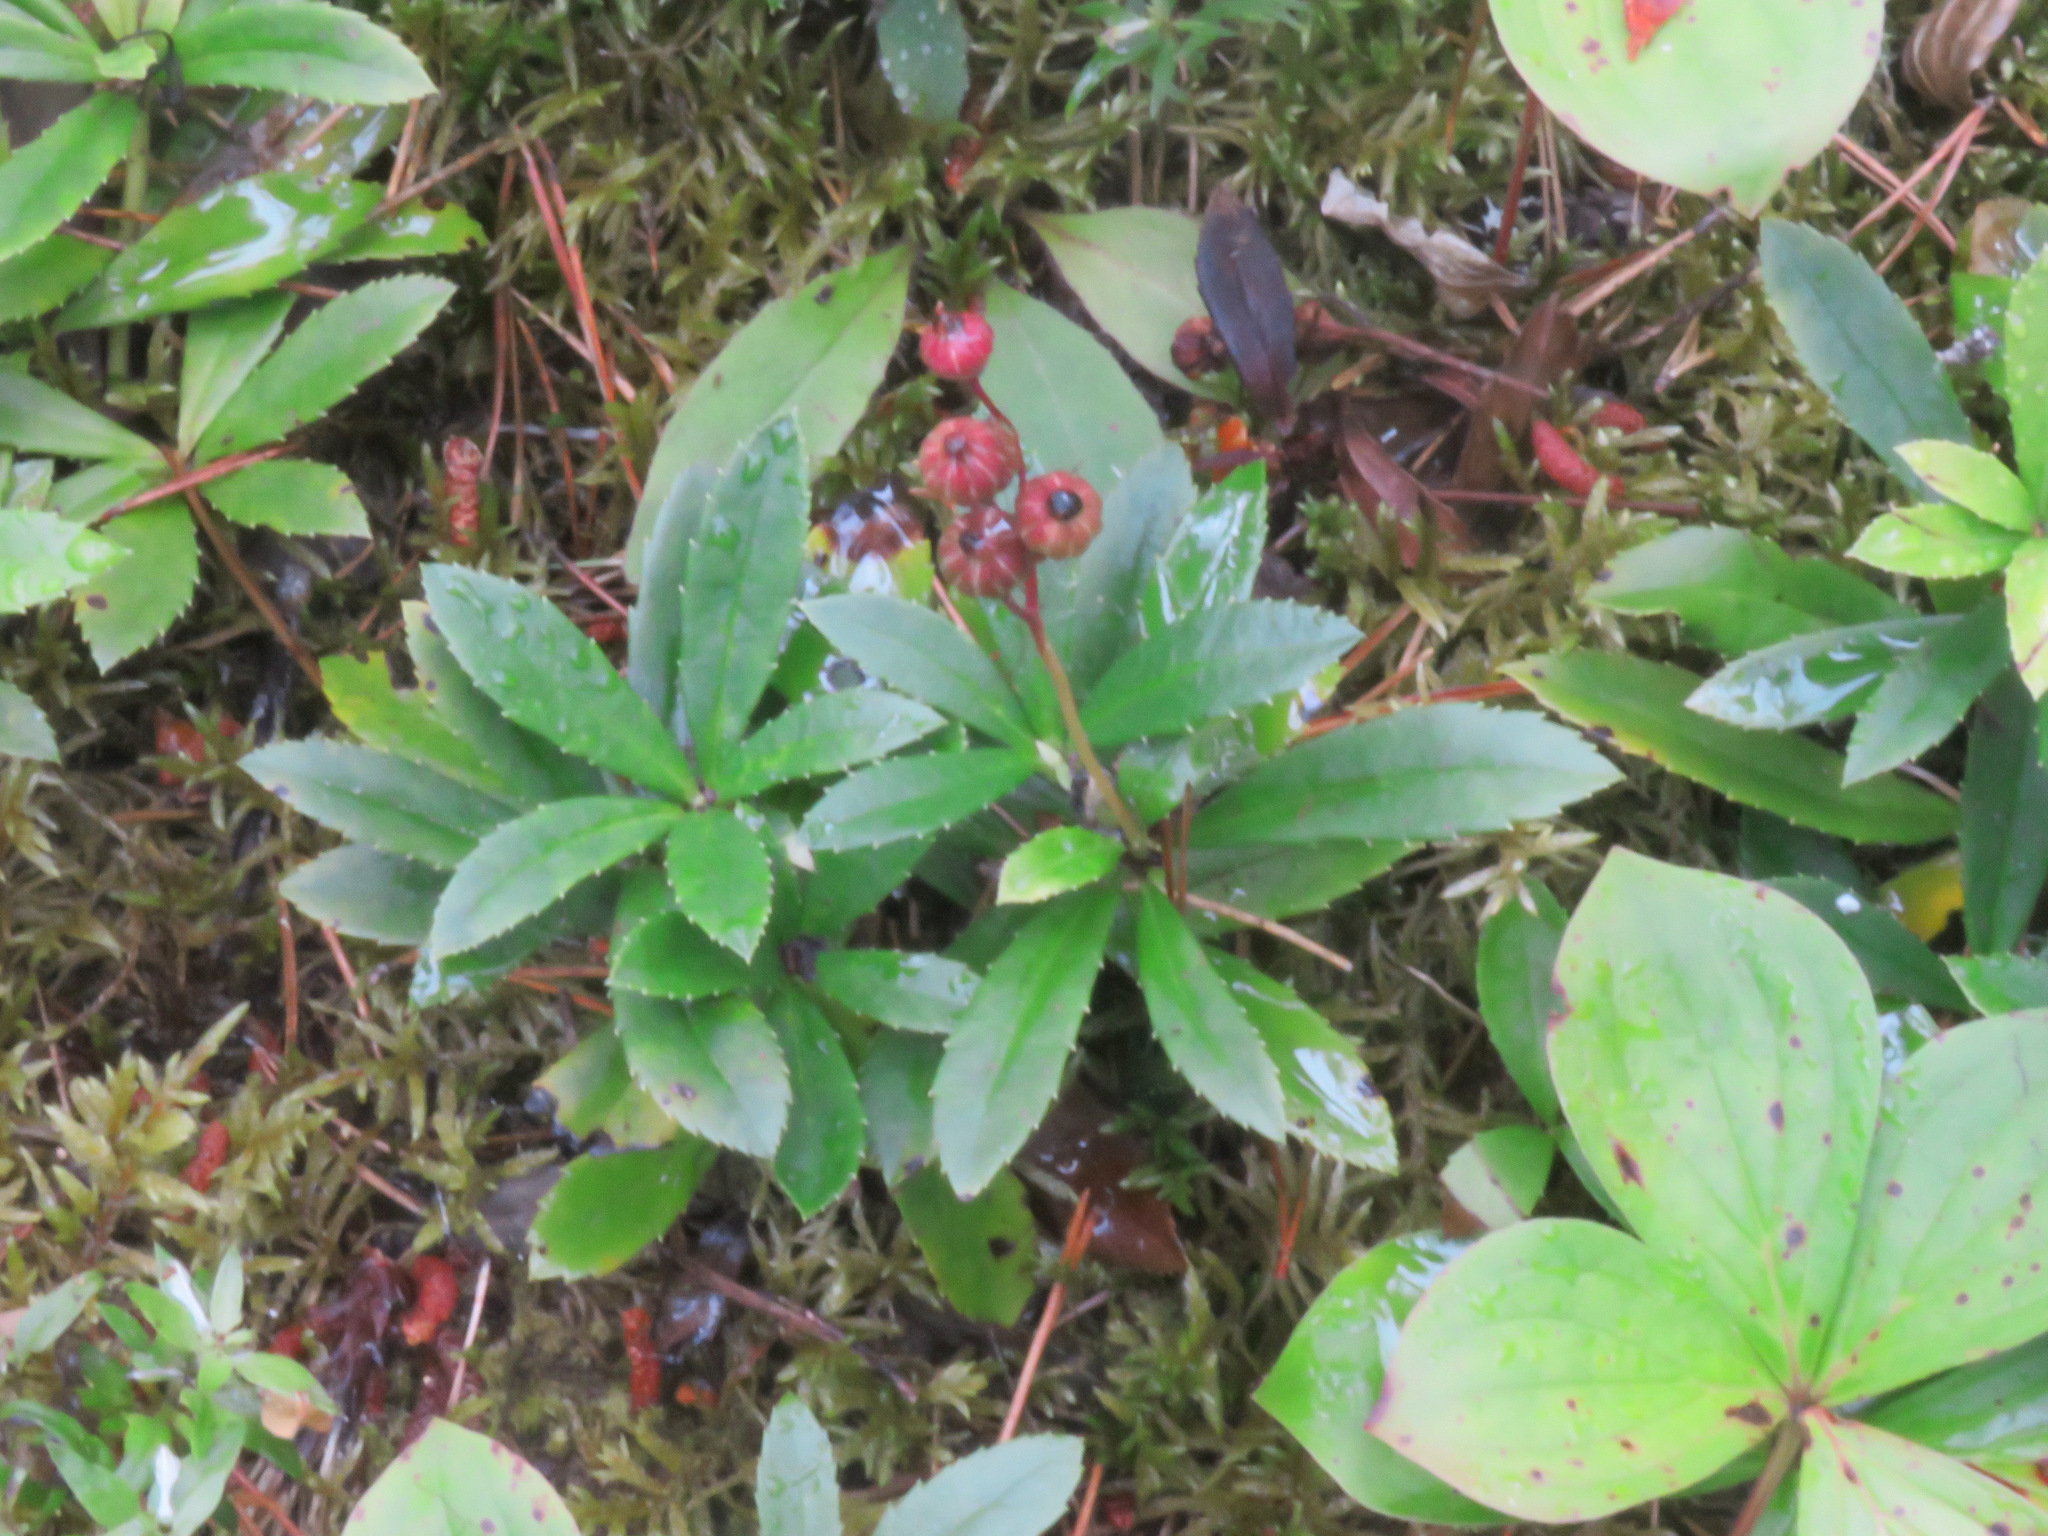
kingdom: Plantae
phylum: Tracheophyta
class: Magnoliopsida
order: Ericales
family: Ericaceae
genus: Chimaphila
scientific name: Chimaphila umbellata
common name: Pipsissewa
